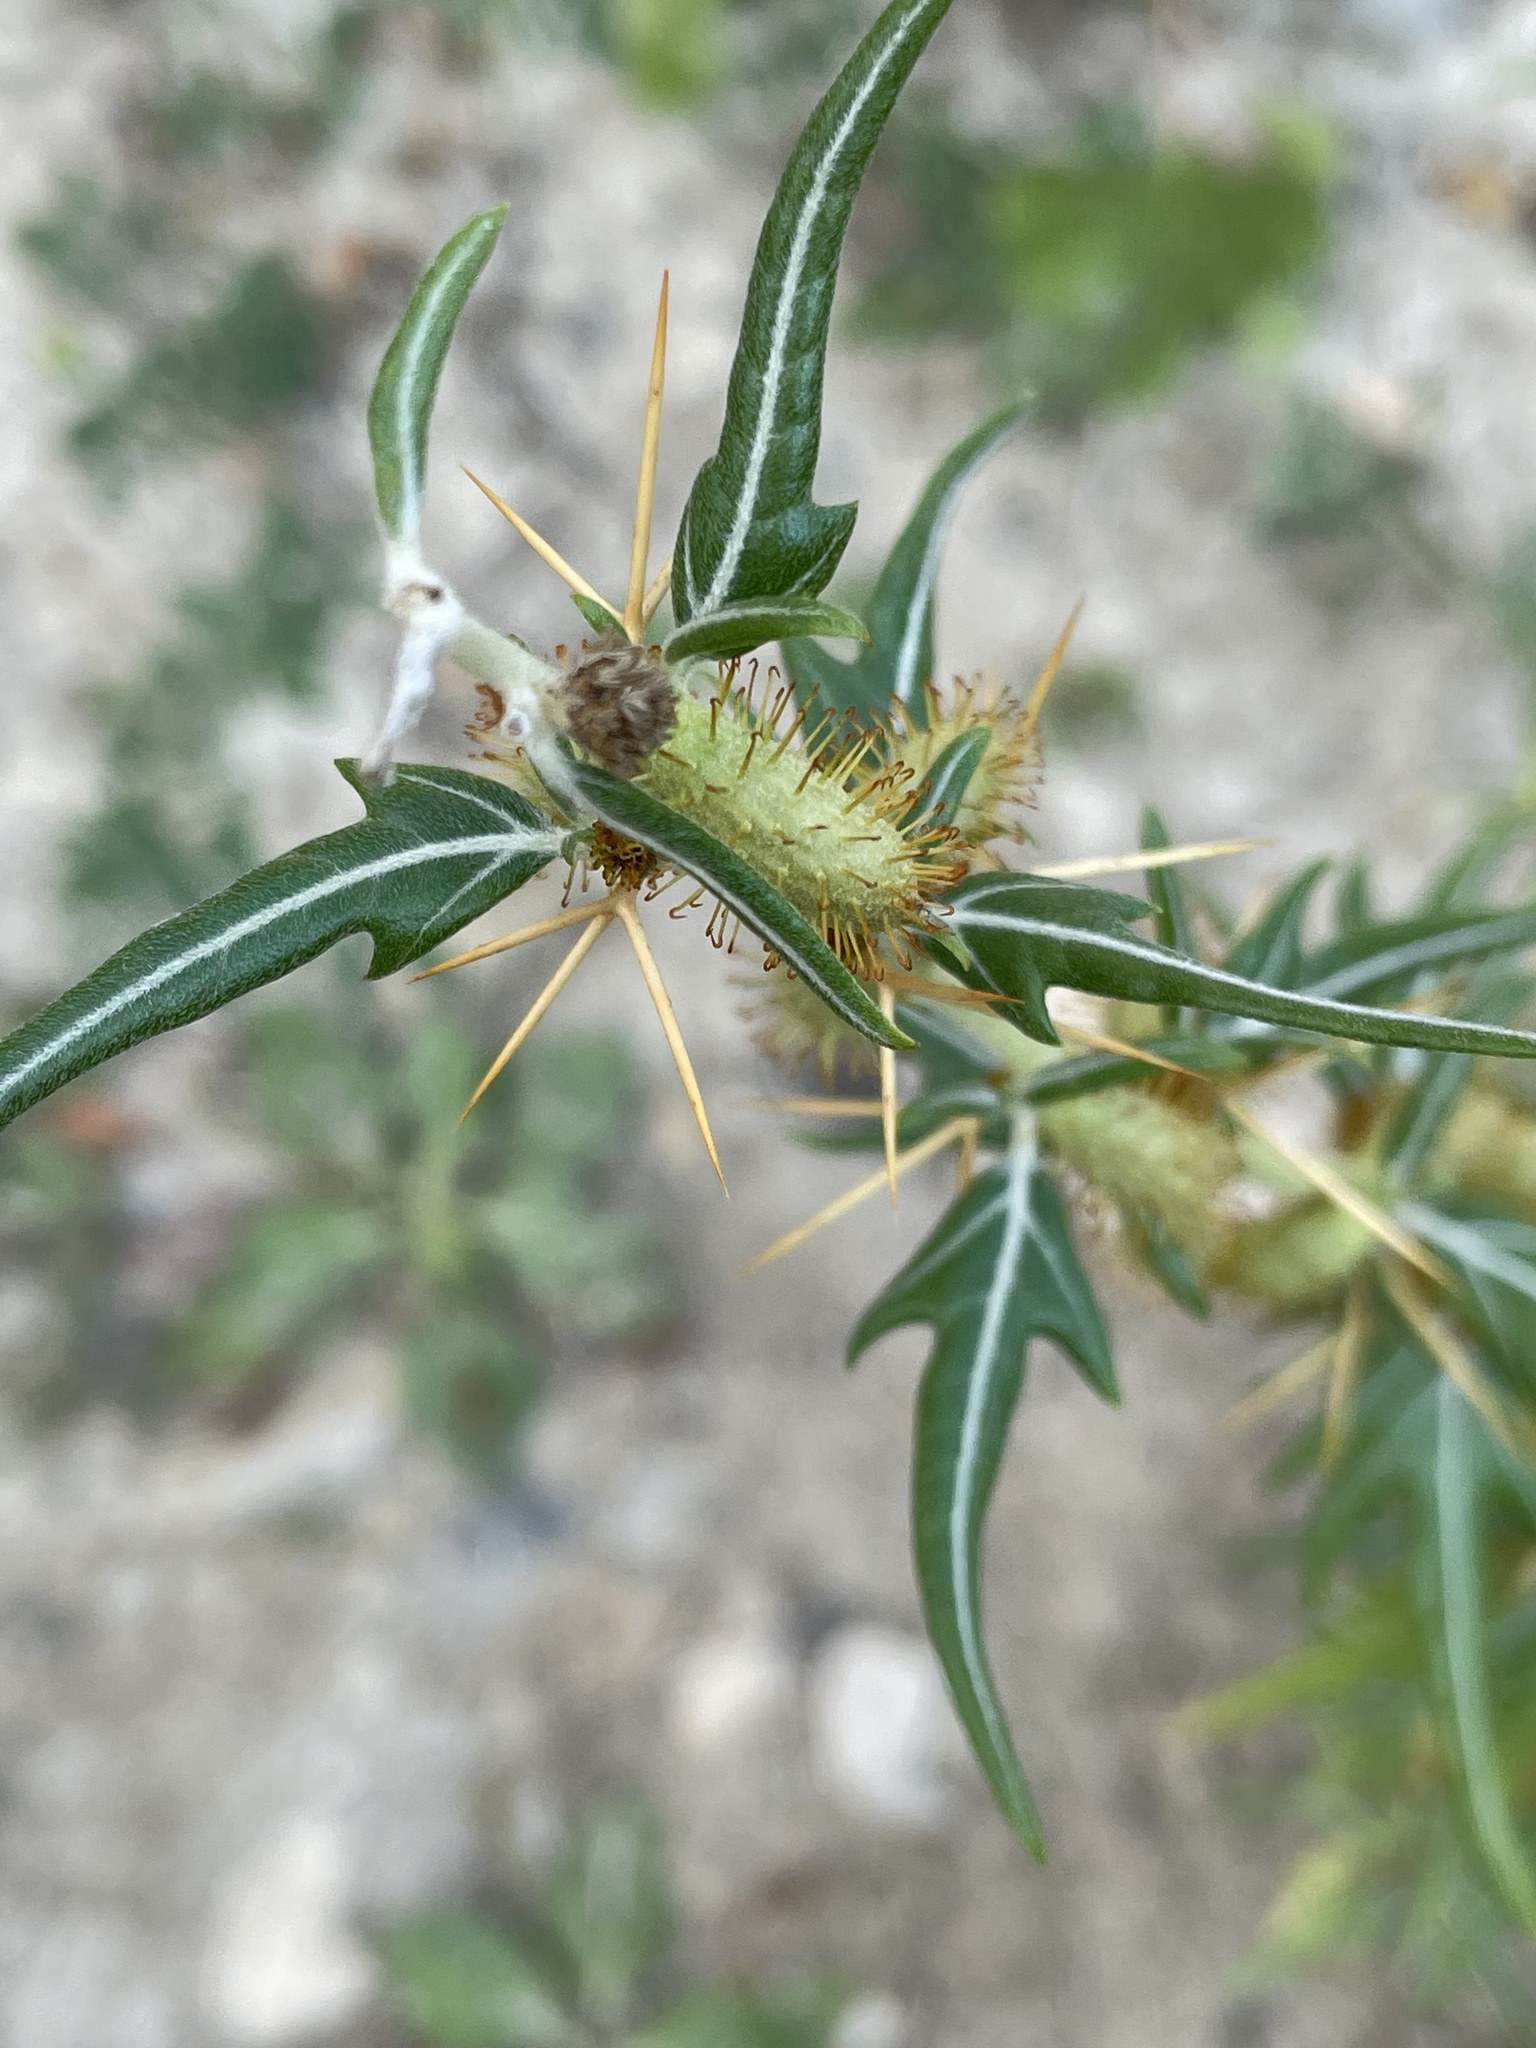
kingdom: Plantae
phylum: Tracheophyta
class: Magnoliopsida
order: Asterales
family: Asteraceae
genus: Xanthium
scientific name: Xanthium spinosum
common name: Spiny cocklebur
